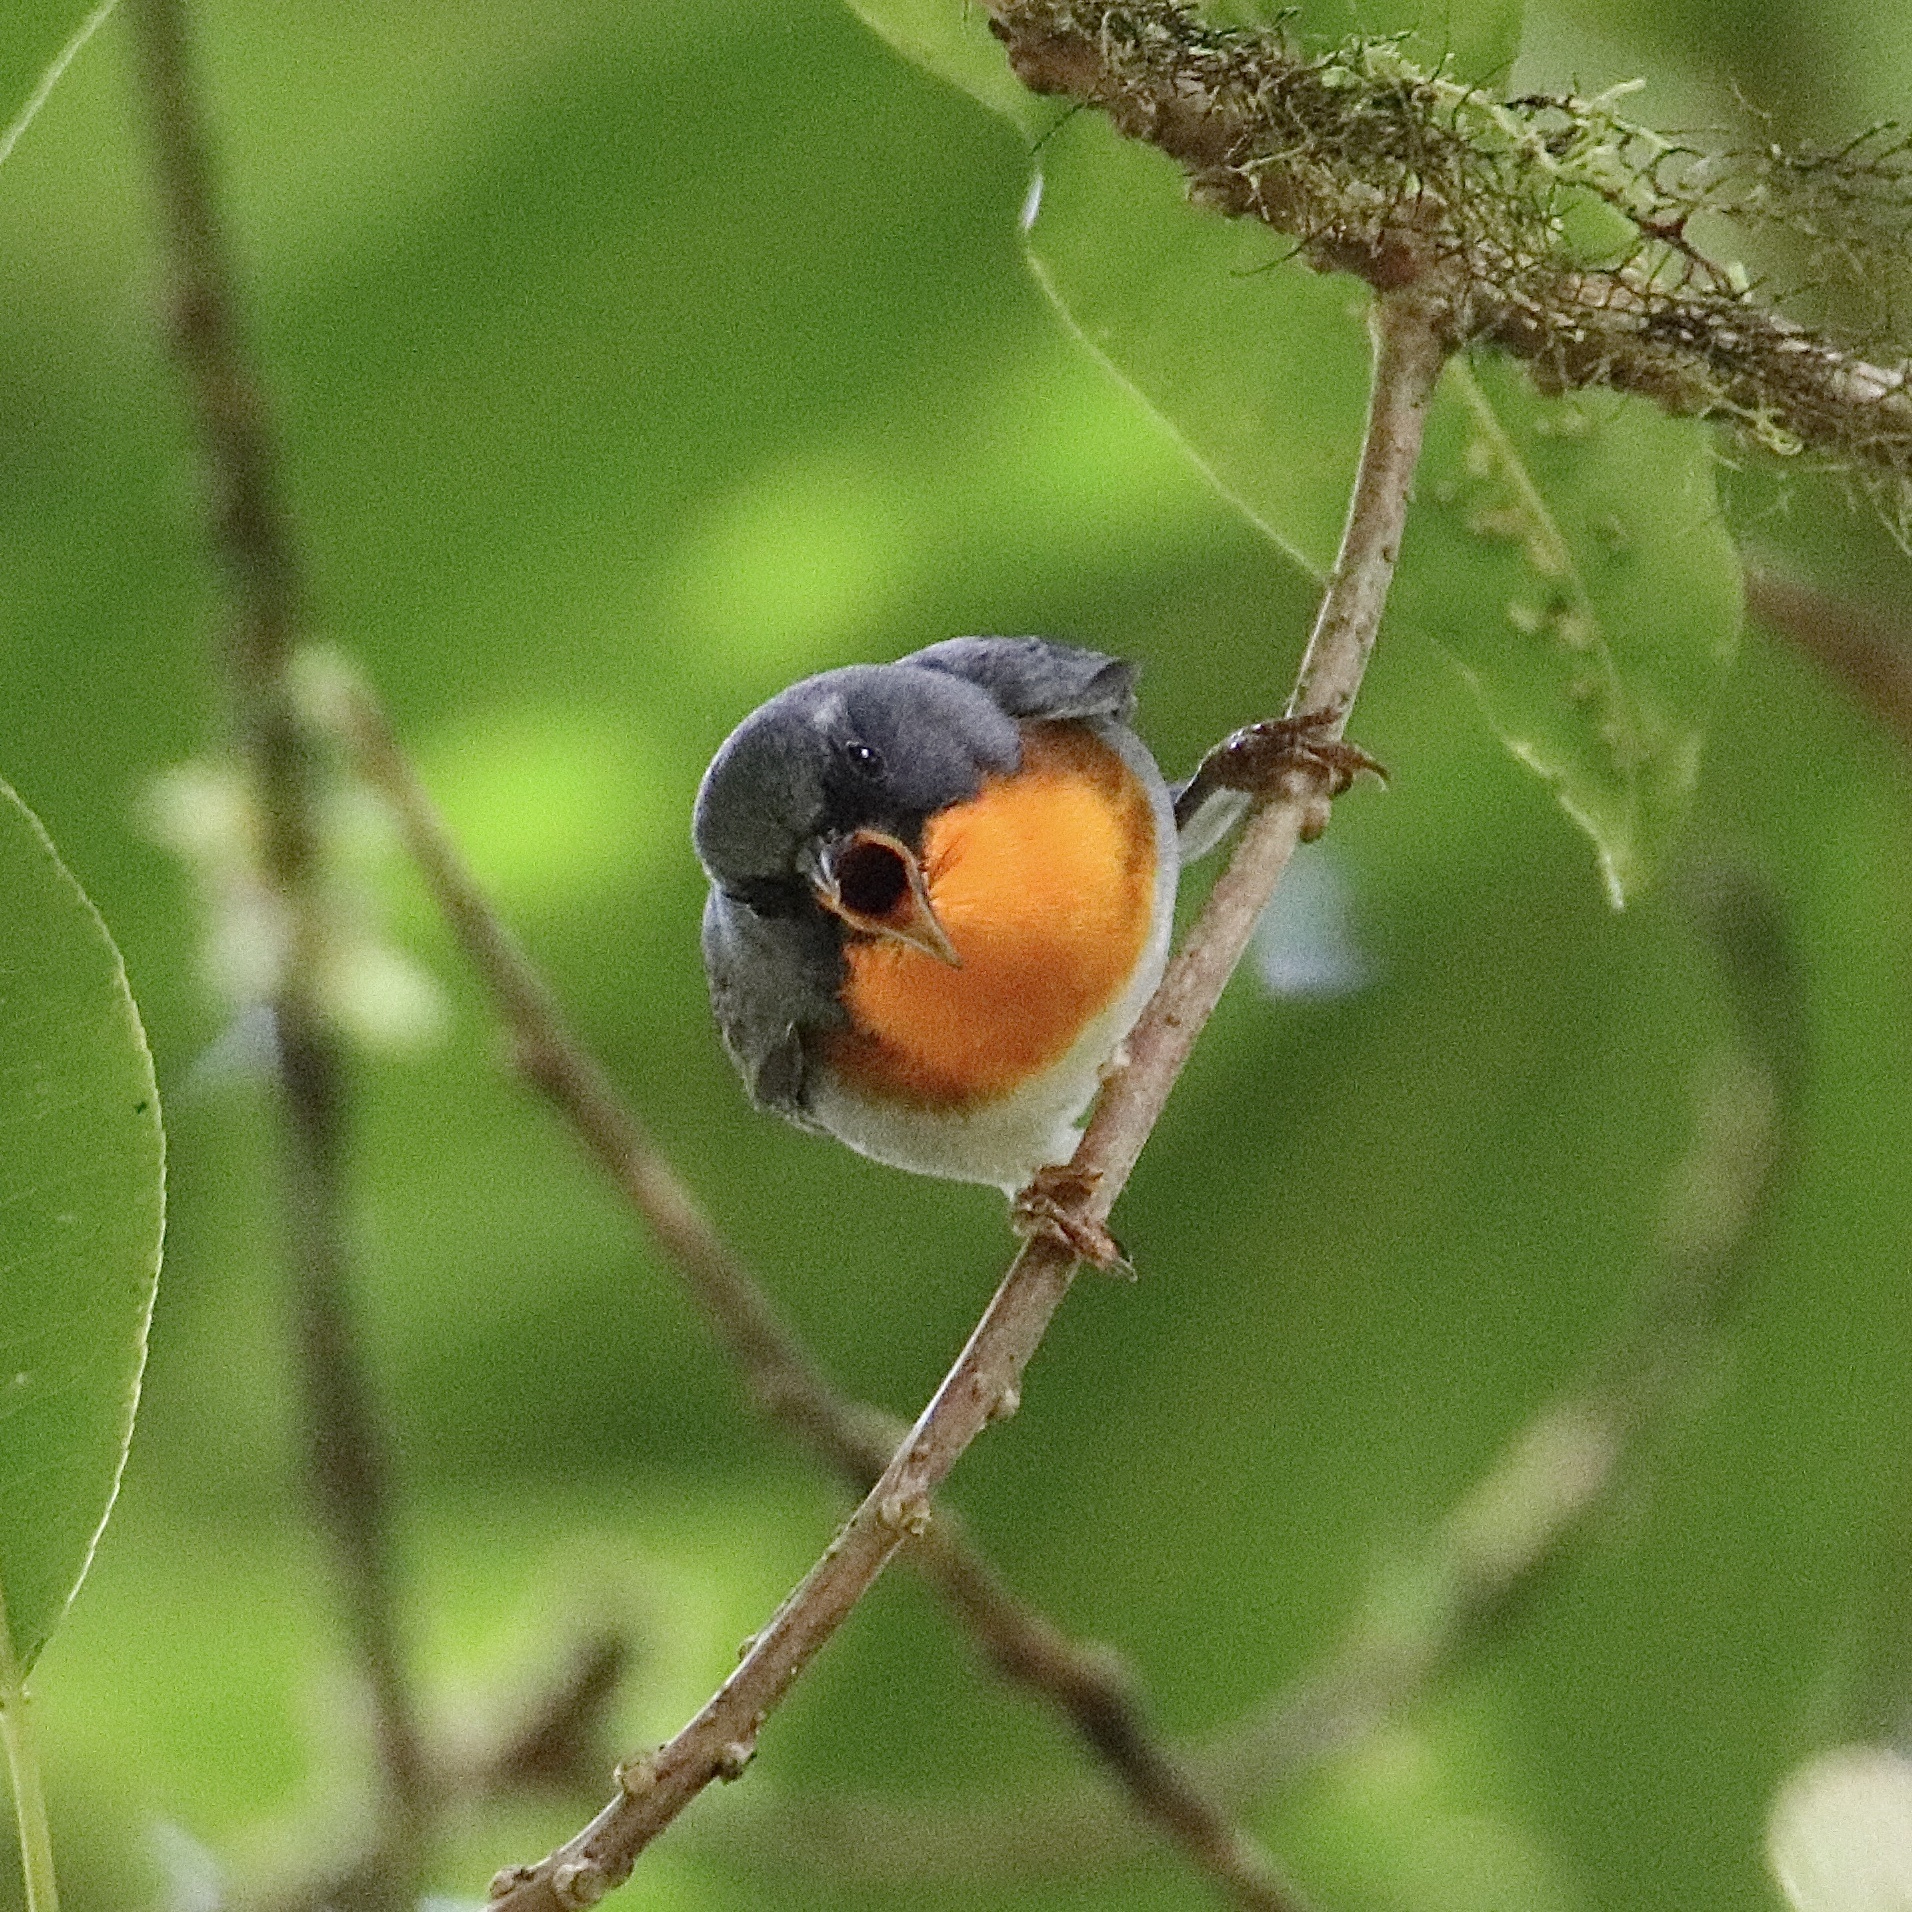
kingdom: Animalia
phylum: Chordata
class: Aves
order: Passeriformes
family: Parulidae
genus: Oreothlypis
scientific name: Oreothlypis gutturalis
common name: Flame-throated warbler
